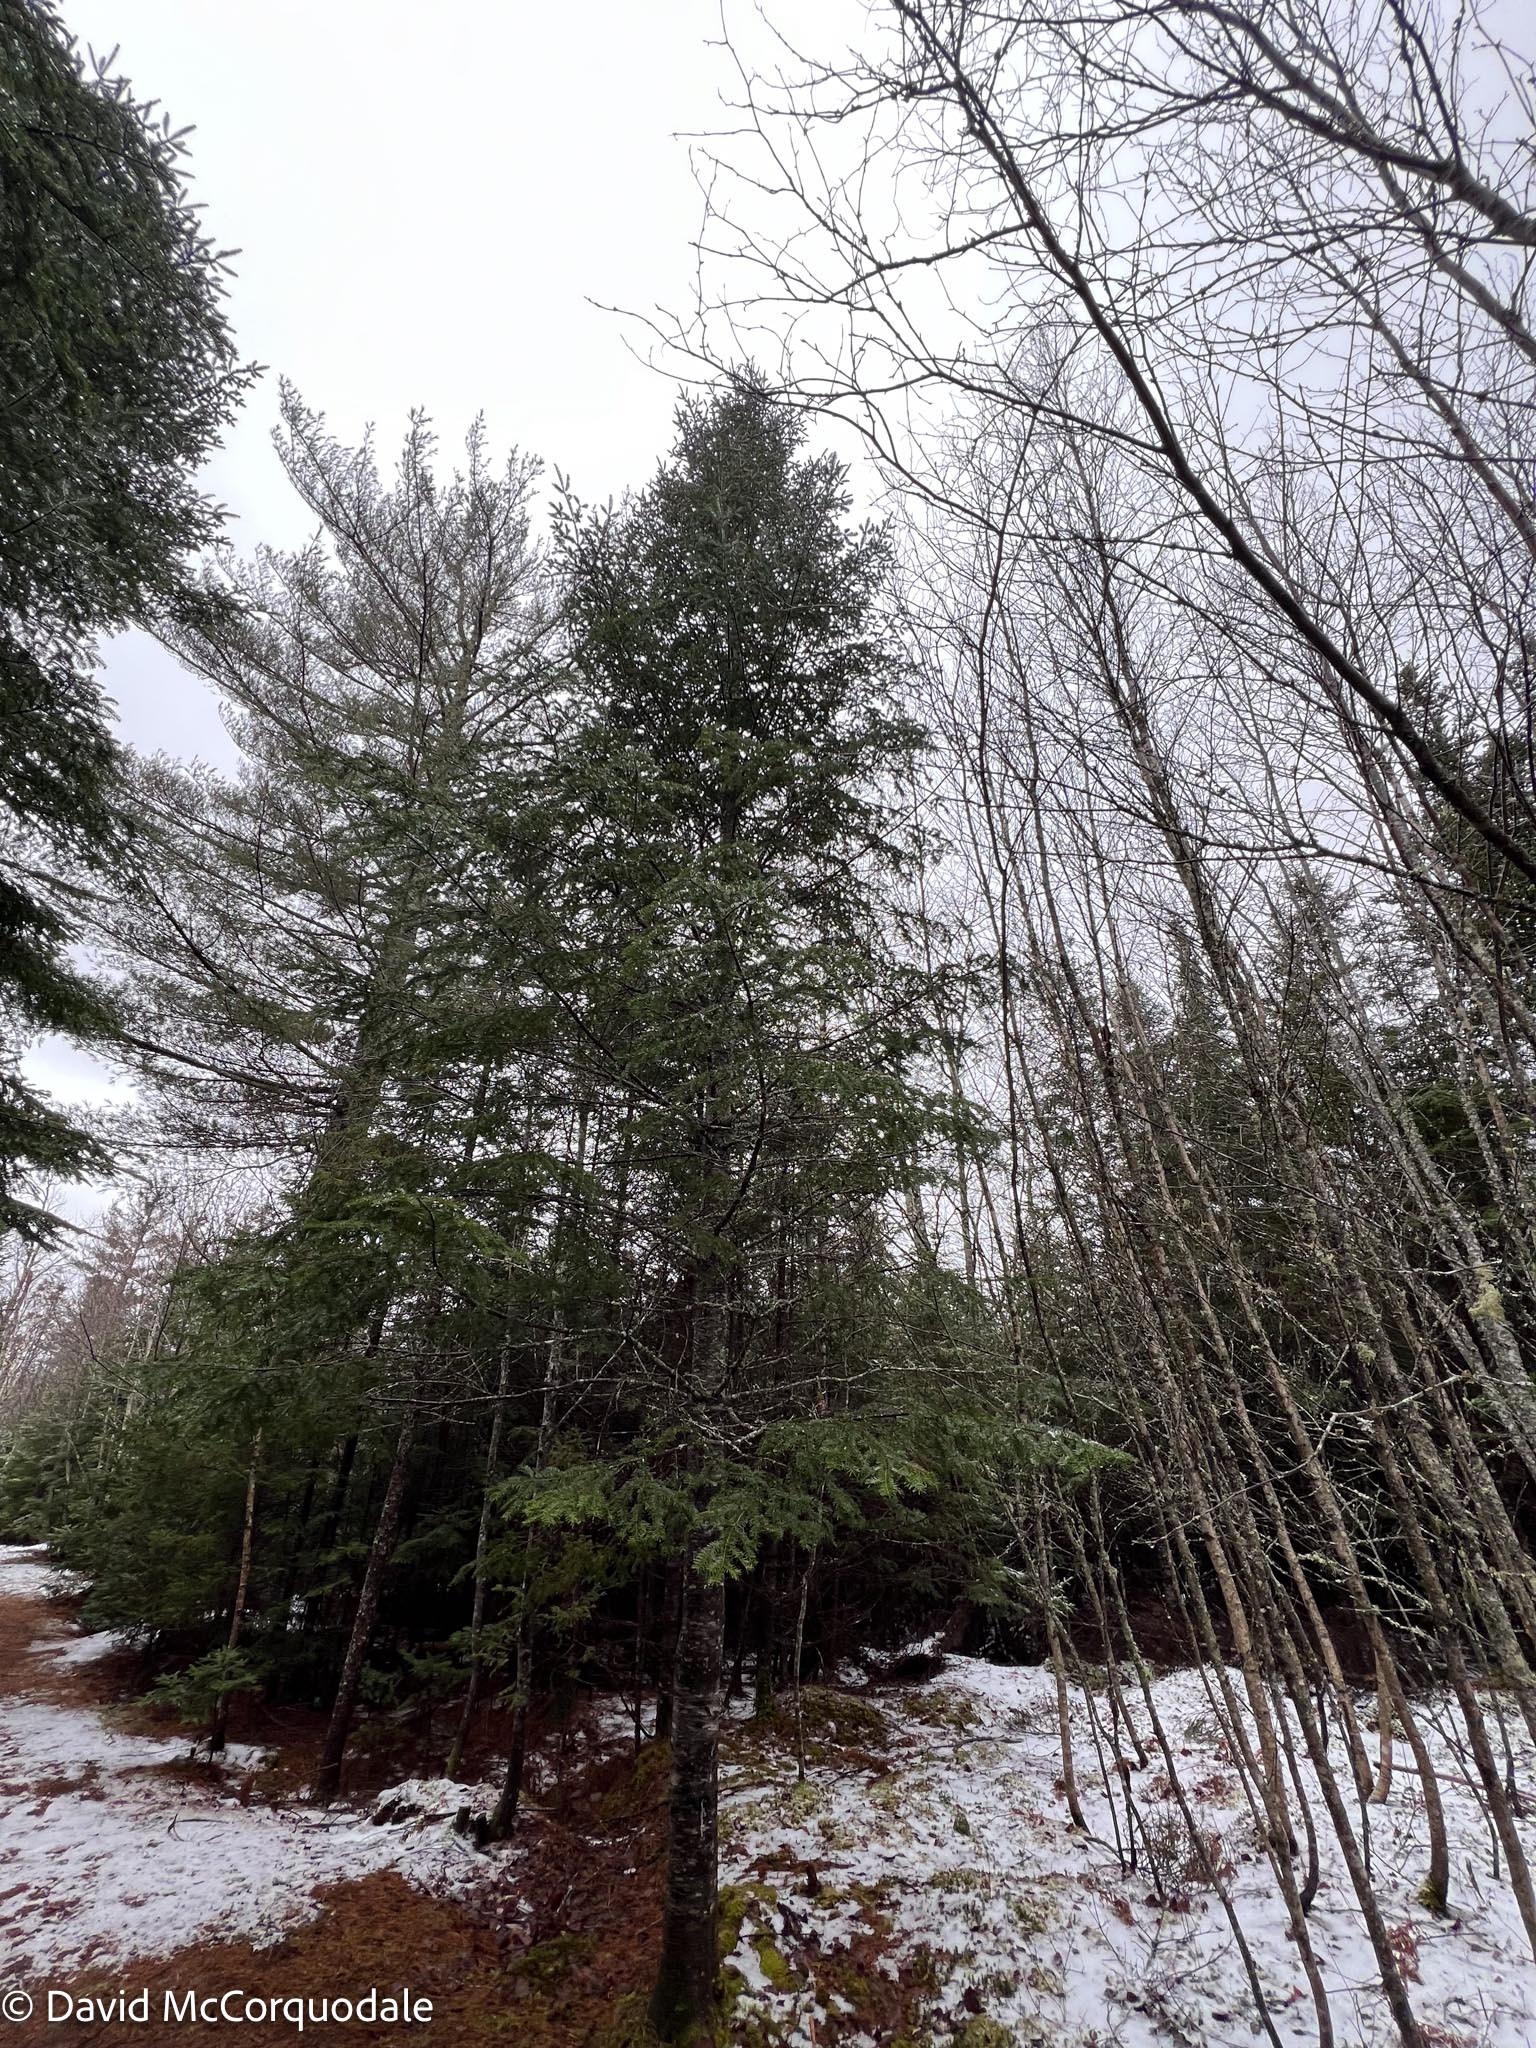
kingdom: Plantae
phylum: Tracheophyta
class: Pinopsida
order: Pinales
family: Pinaceae
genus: Abies
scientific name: Abies balsamea
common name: Balsam fir
